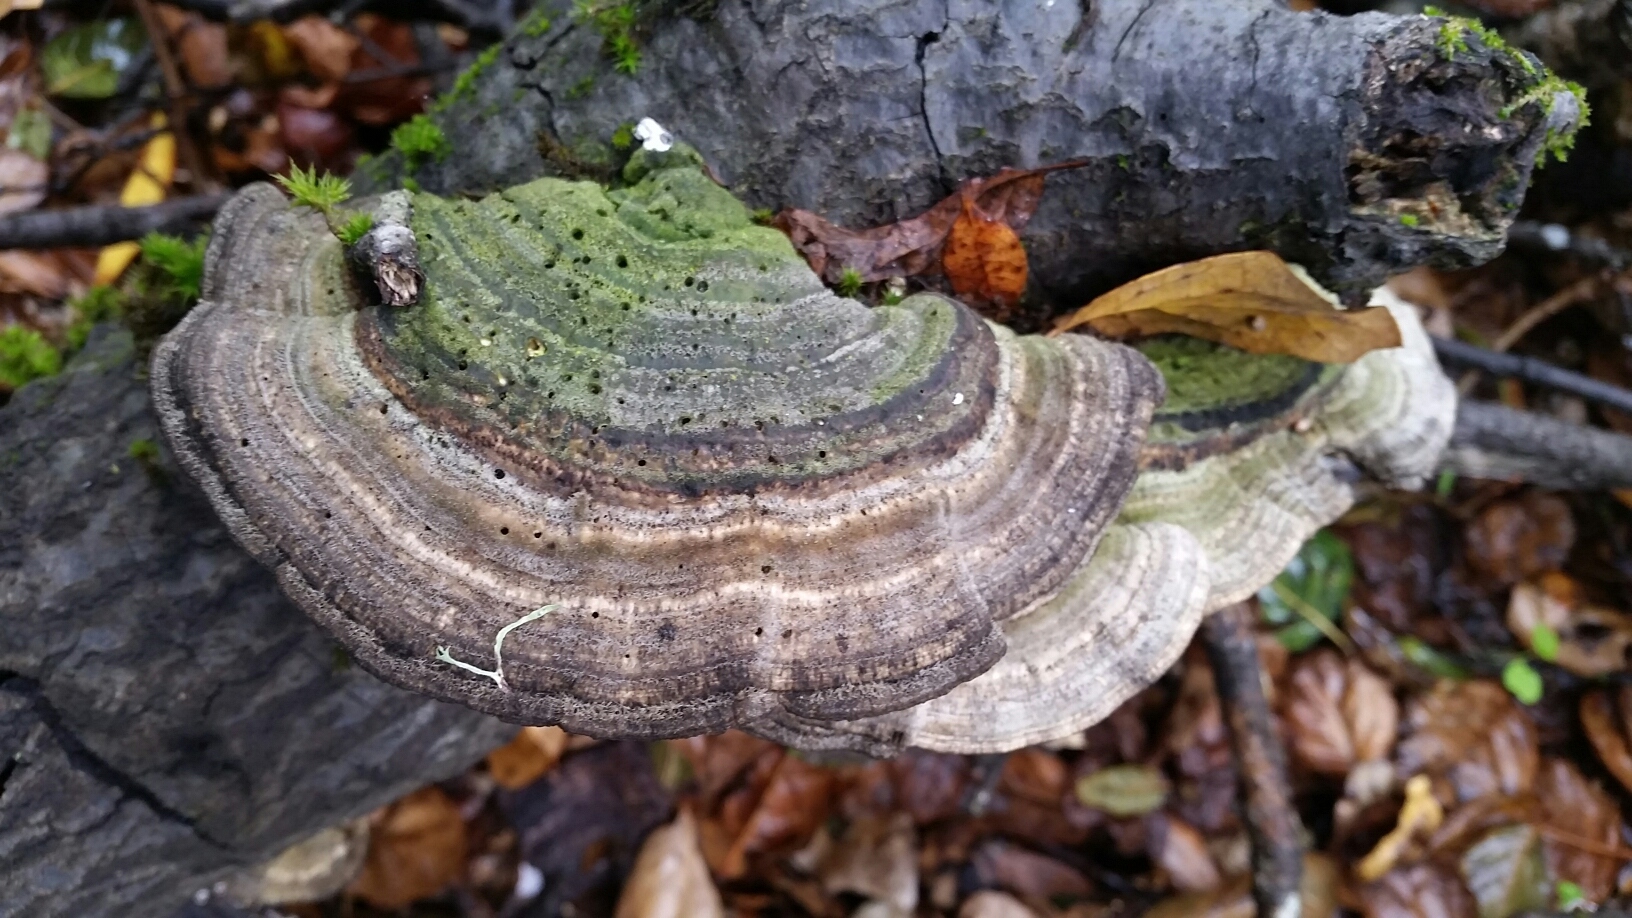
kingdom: Fungi
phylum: Basidiomycota
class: Agaricomycetes
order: Polyporales
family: Polyporaceae
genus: Lenzites
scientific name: Lenzites betulinus
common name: Birch mazegill
